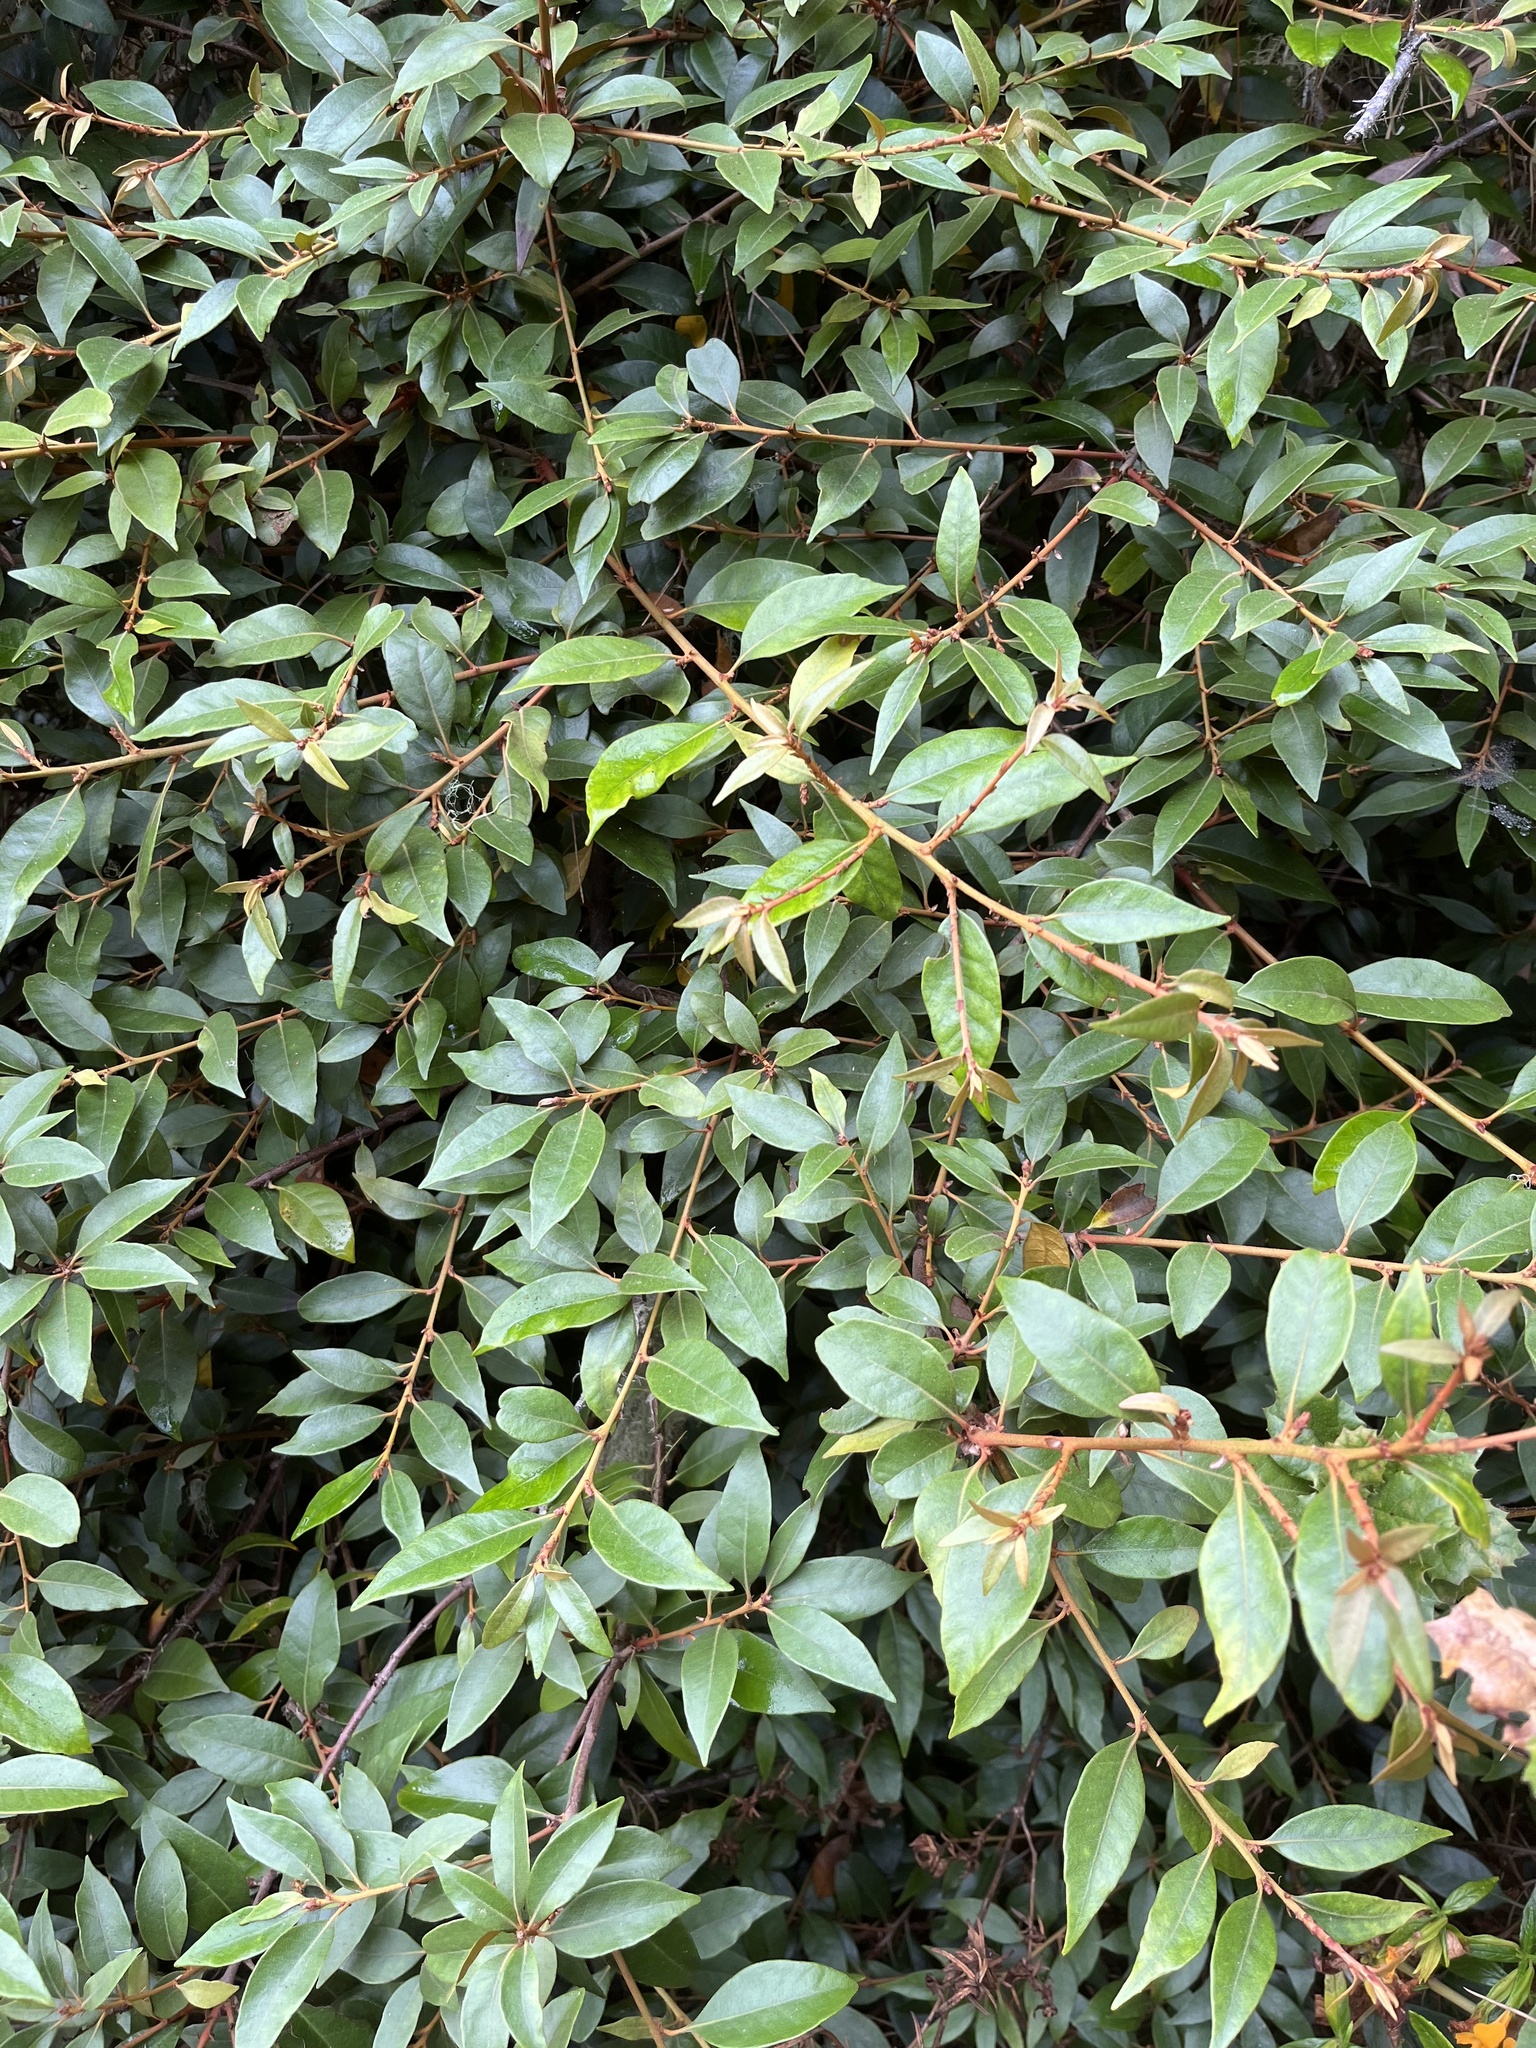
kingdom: Plantae
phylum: Tracheophyta
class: Magnoliopsida
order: Fagales
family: Fagaceae
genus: Chrysolepis
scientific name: Chrysolepis chrysophylla
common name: Giant chinquapin
